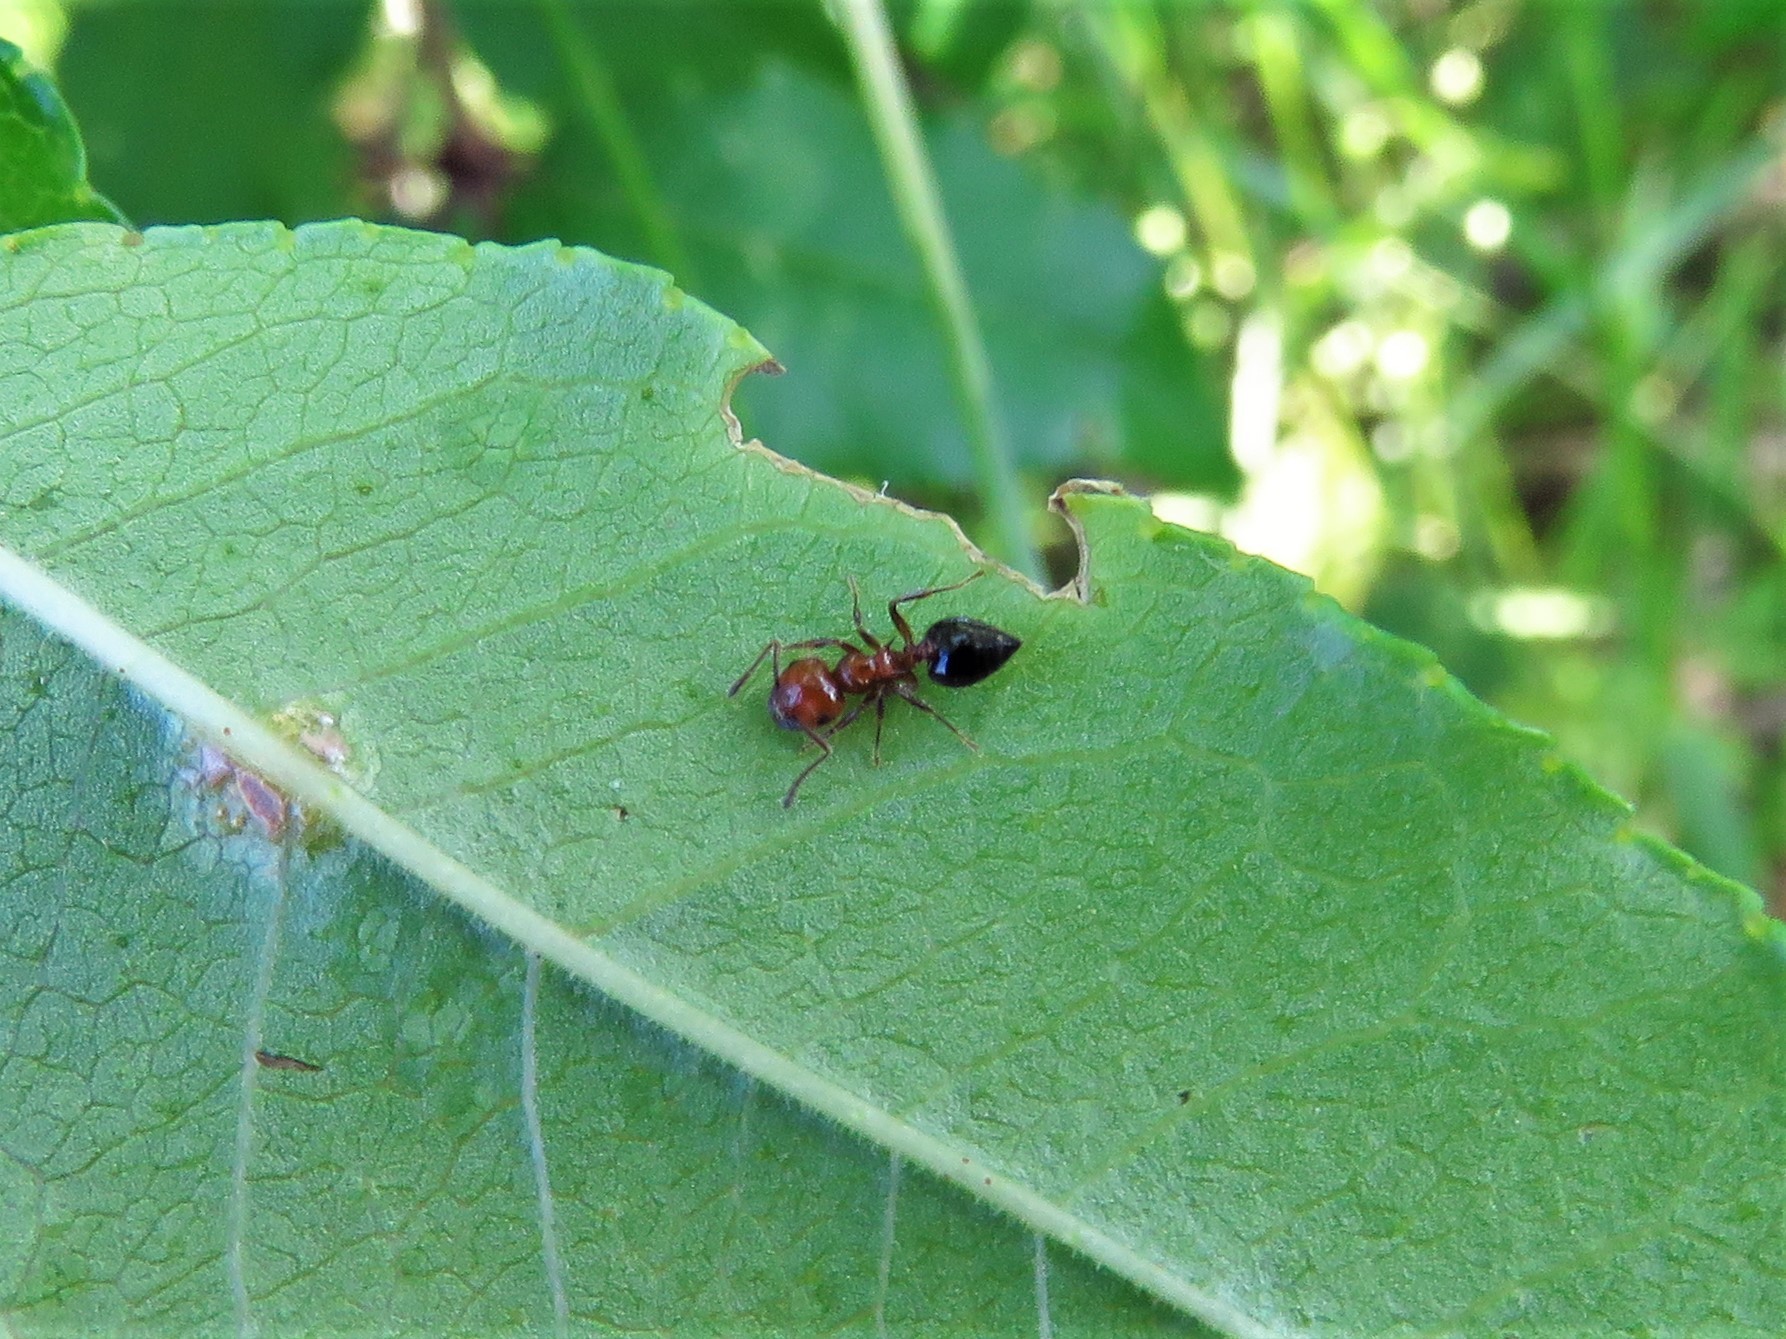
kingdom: Animalia
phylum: Arthropoda
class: Insecta
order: Hymenoptera
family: Formicidae
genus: Crematogaster
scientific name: Crematogaster laeviuscula
